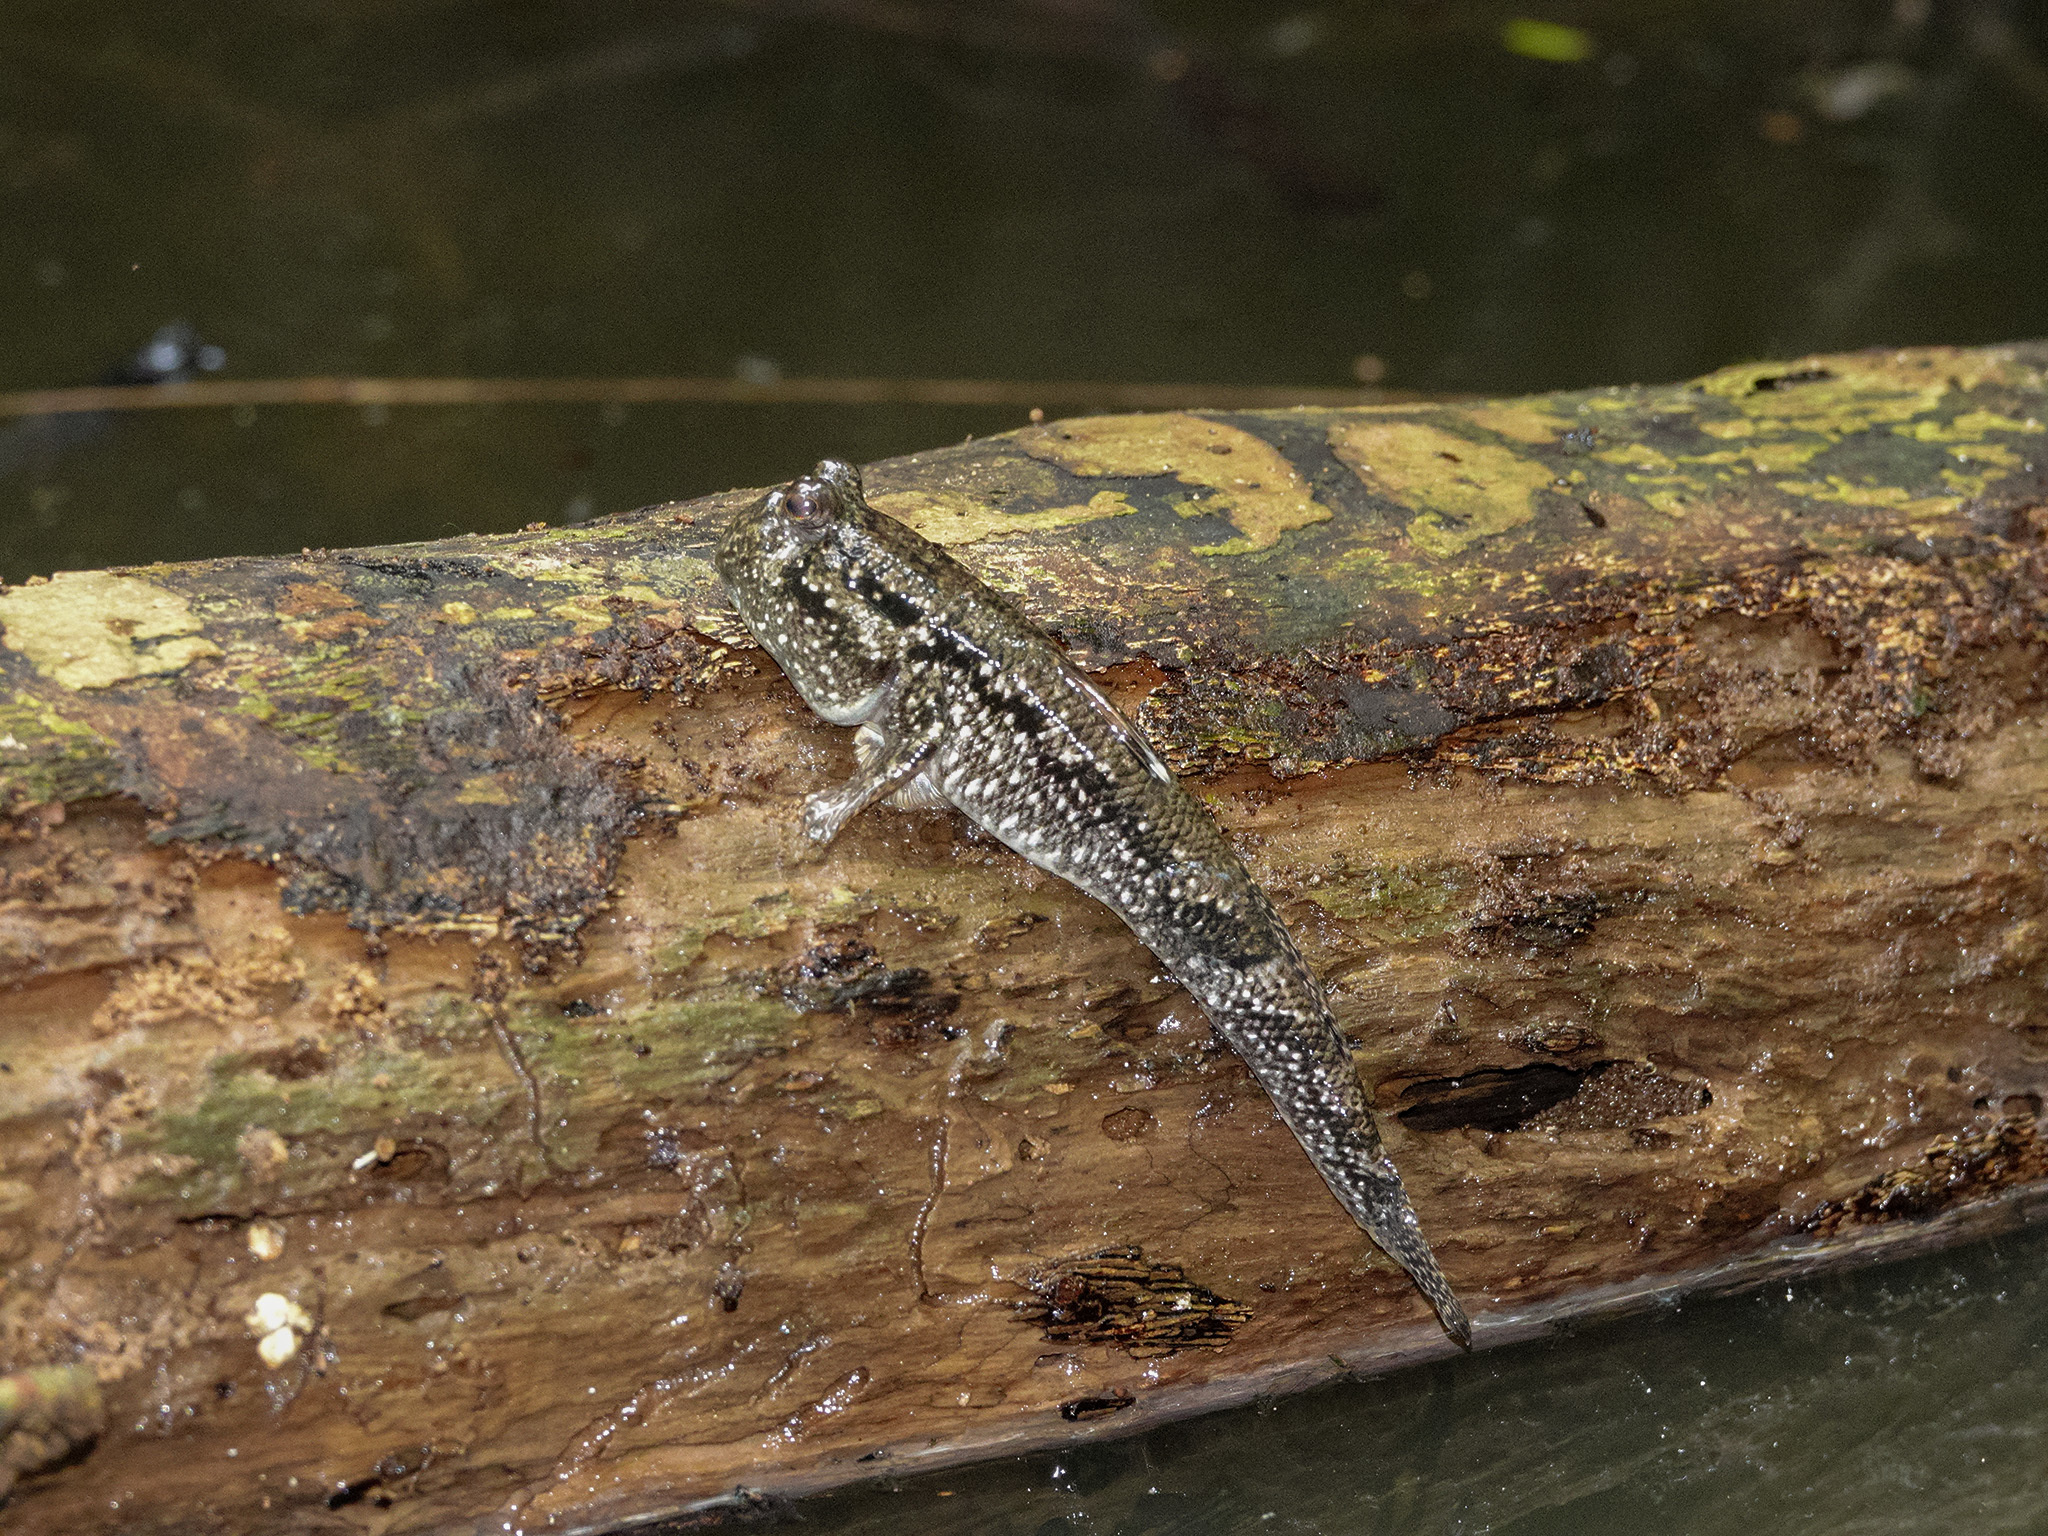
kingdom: Animalia
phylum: Chordata
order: Perciformes
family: Gobiidae
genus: Periophthalmus
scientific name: Periophthalmus walailakae
